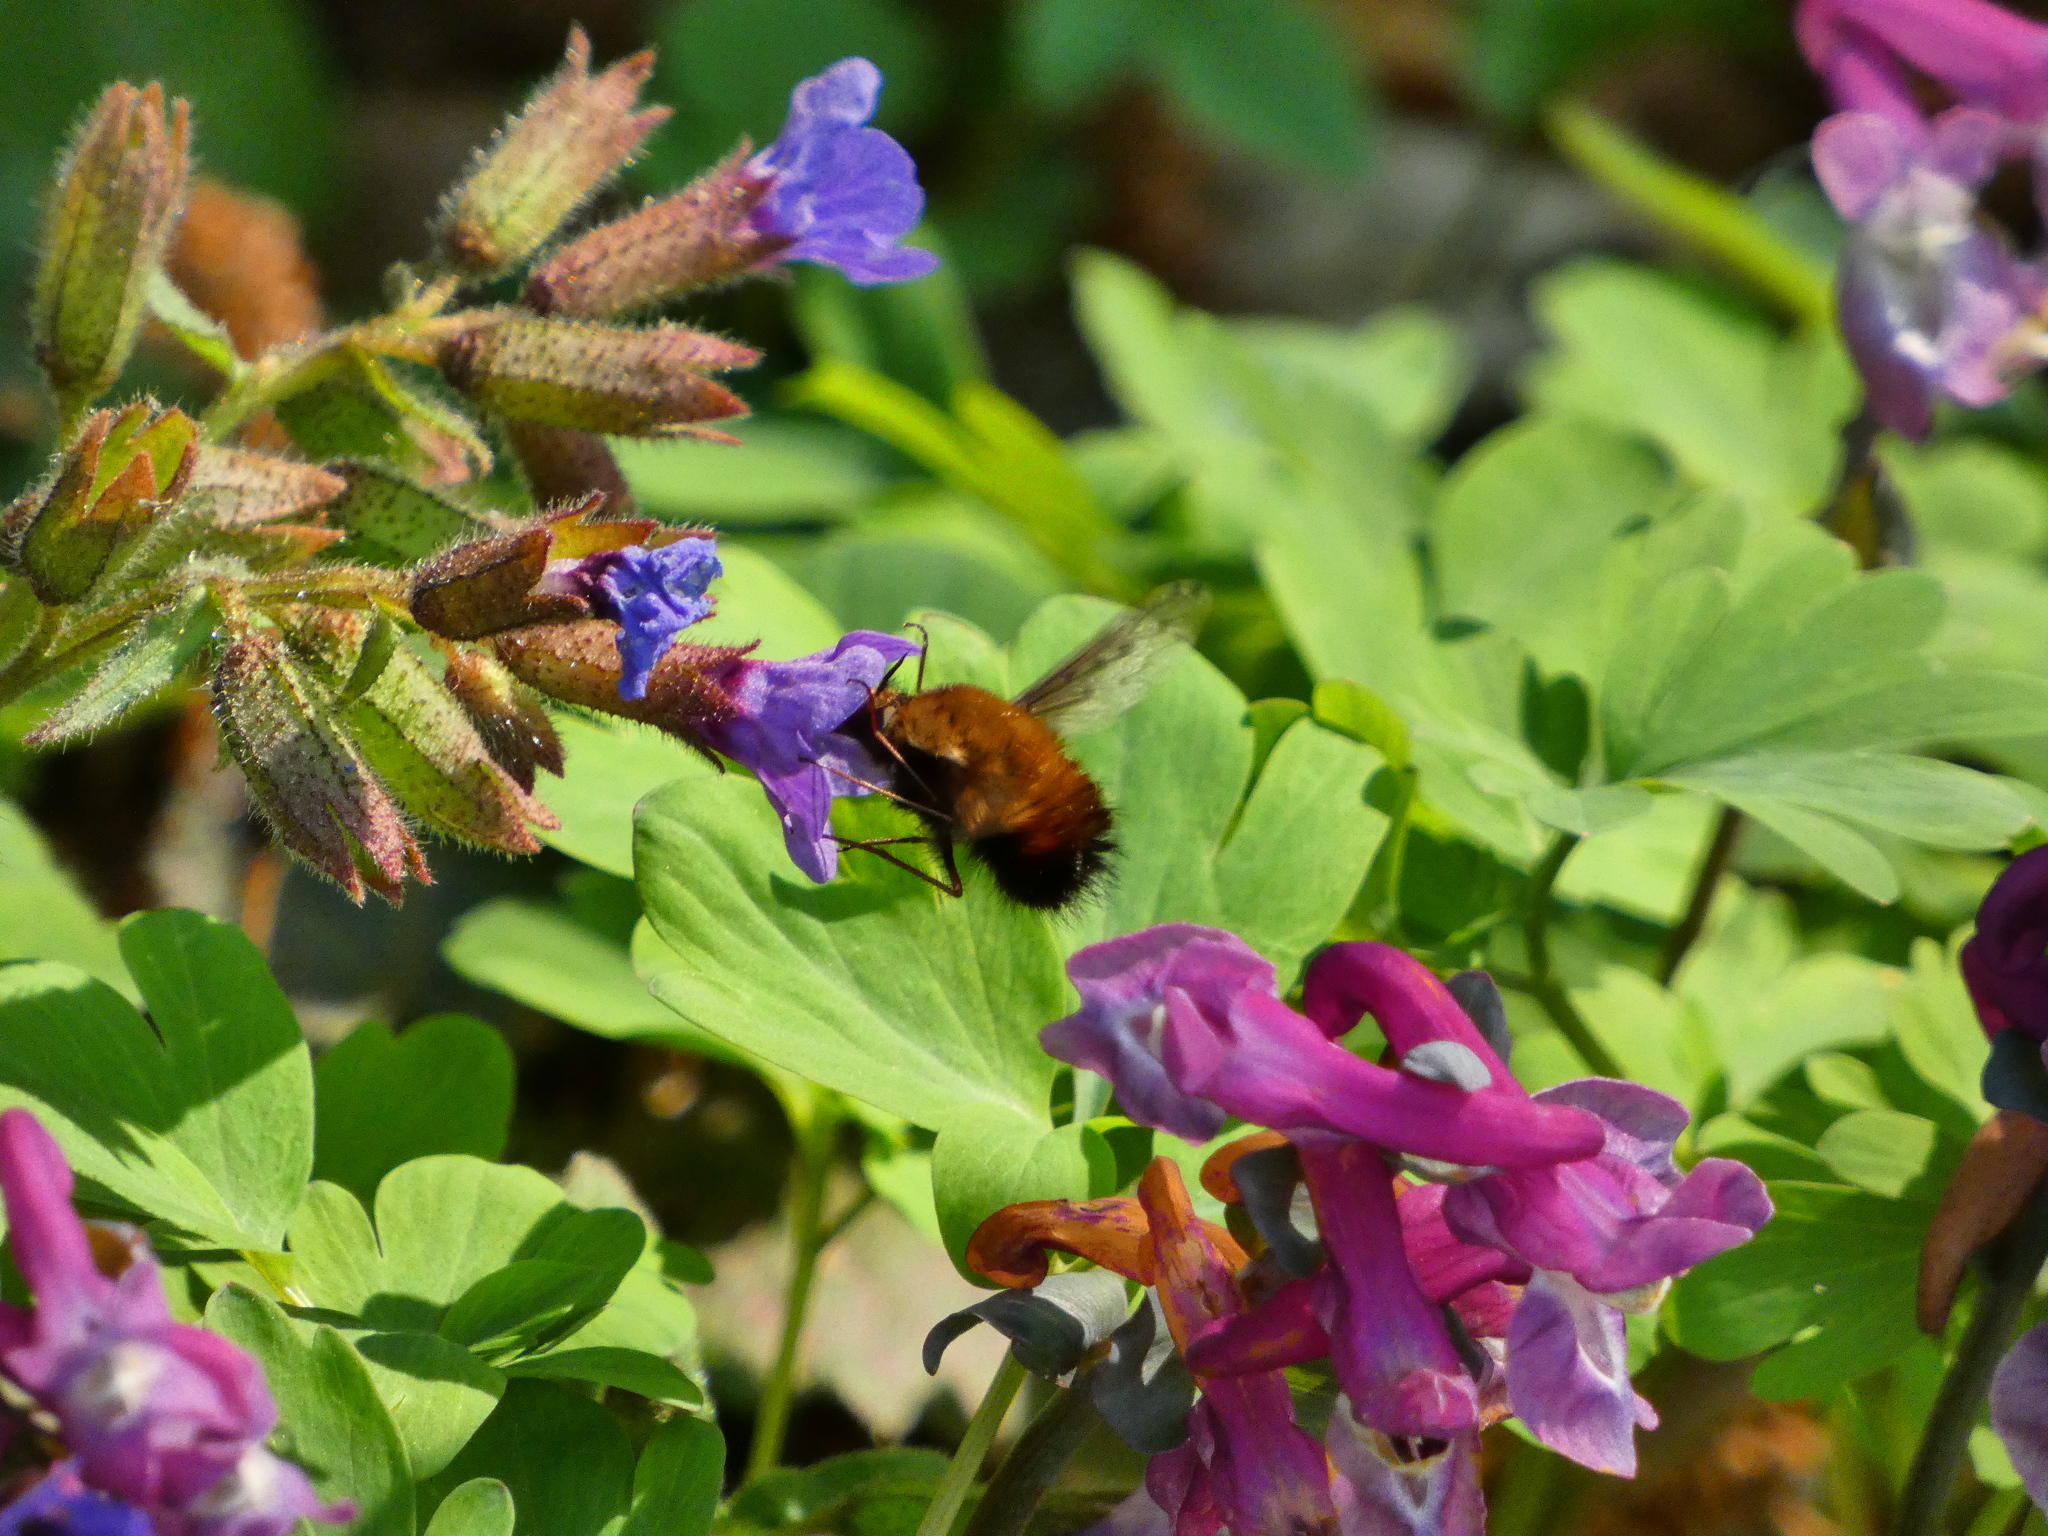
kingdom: Animalia
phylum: Arthropoda
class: Insecta
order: Diptera
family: Bombyliidae
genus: Bombylius
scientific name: Bombylius discolor
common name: Dotted bee-fly
